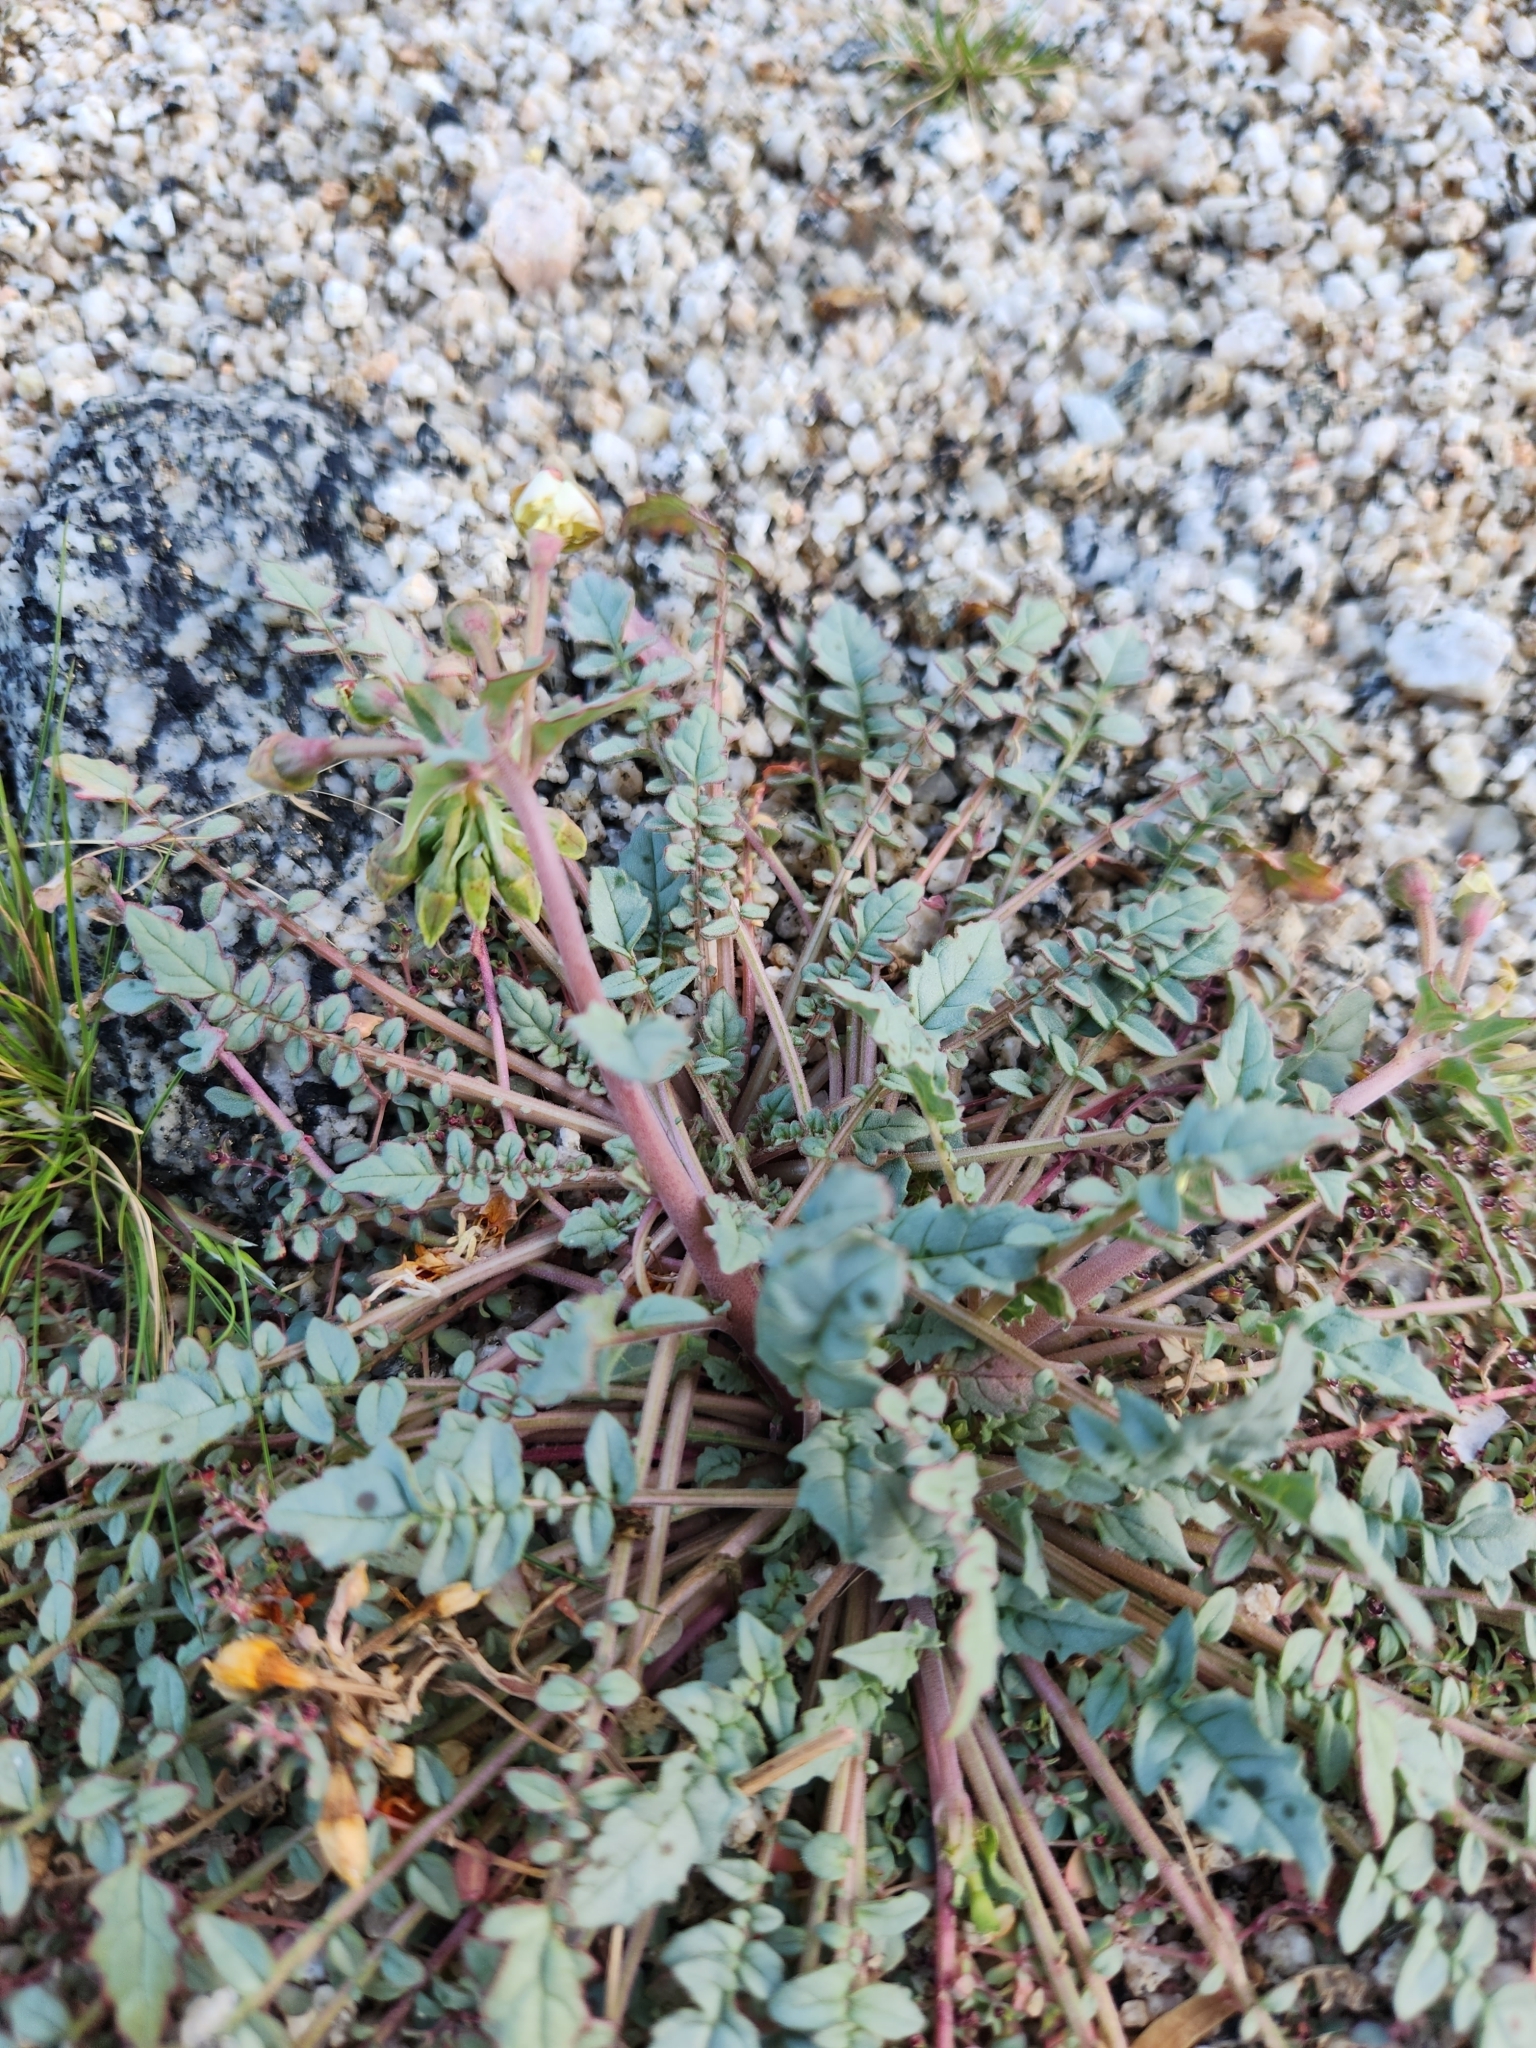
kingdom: Plantae
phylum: Tracheophyta
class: Magnoliopsida
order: Myrtales
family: Onagraceae
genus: Chylismia
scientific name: Chylismia claviformis
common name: Browneyes
